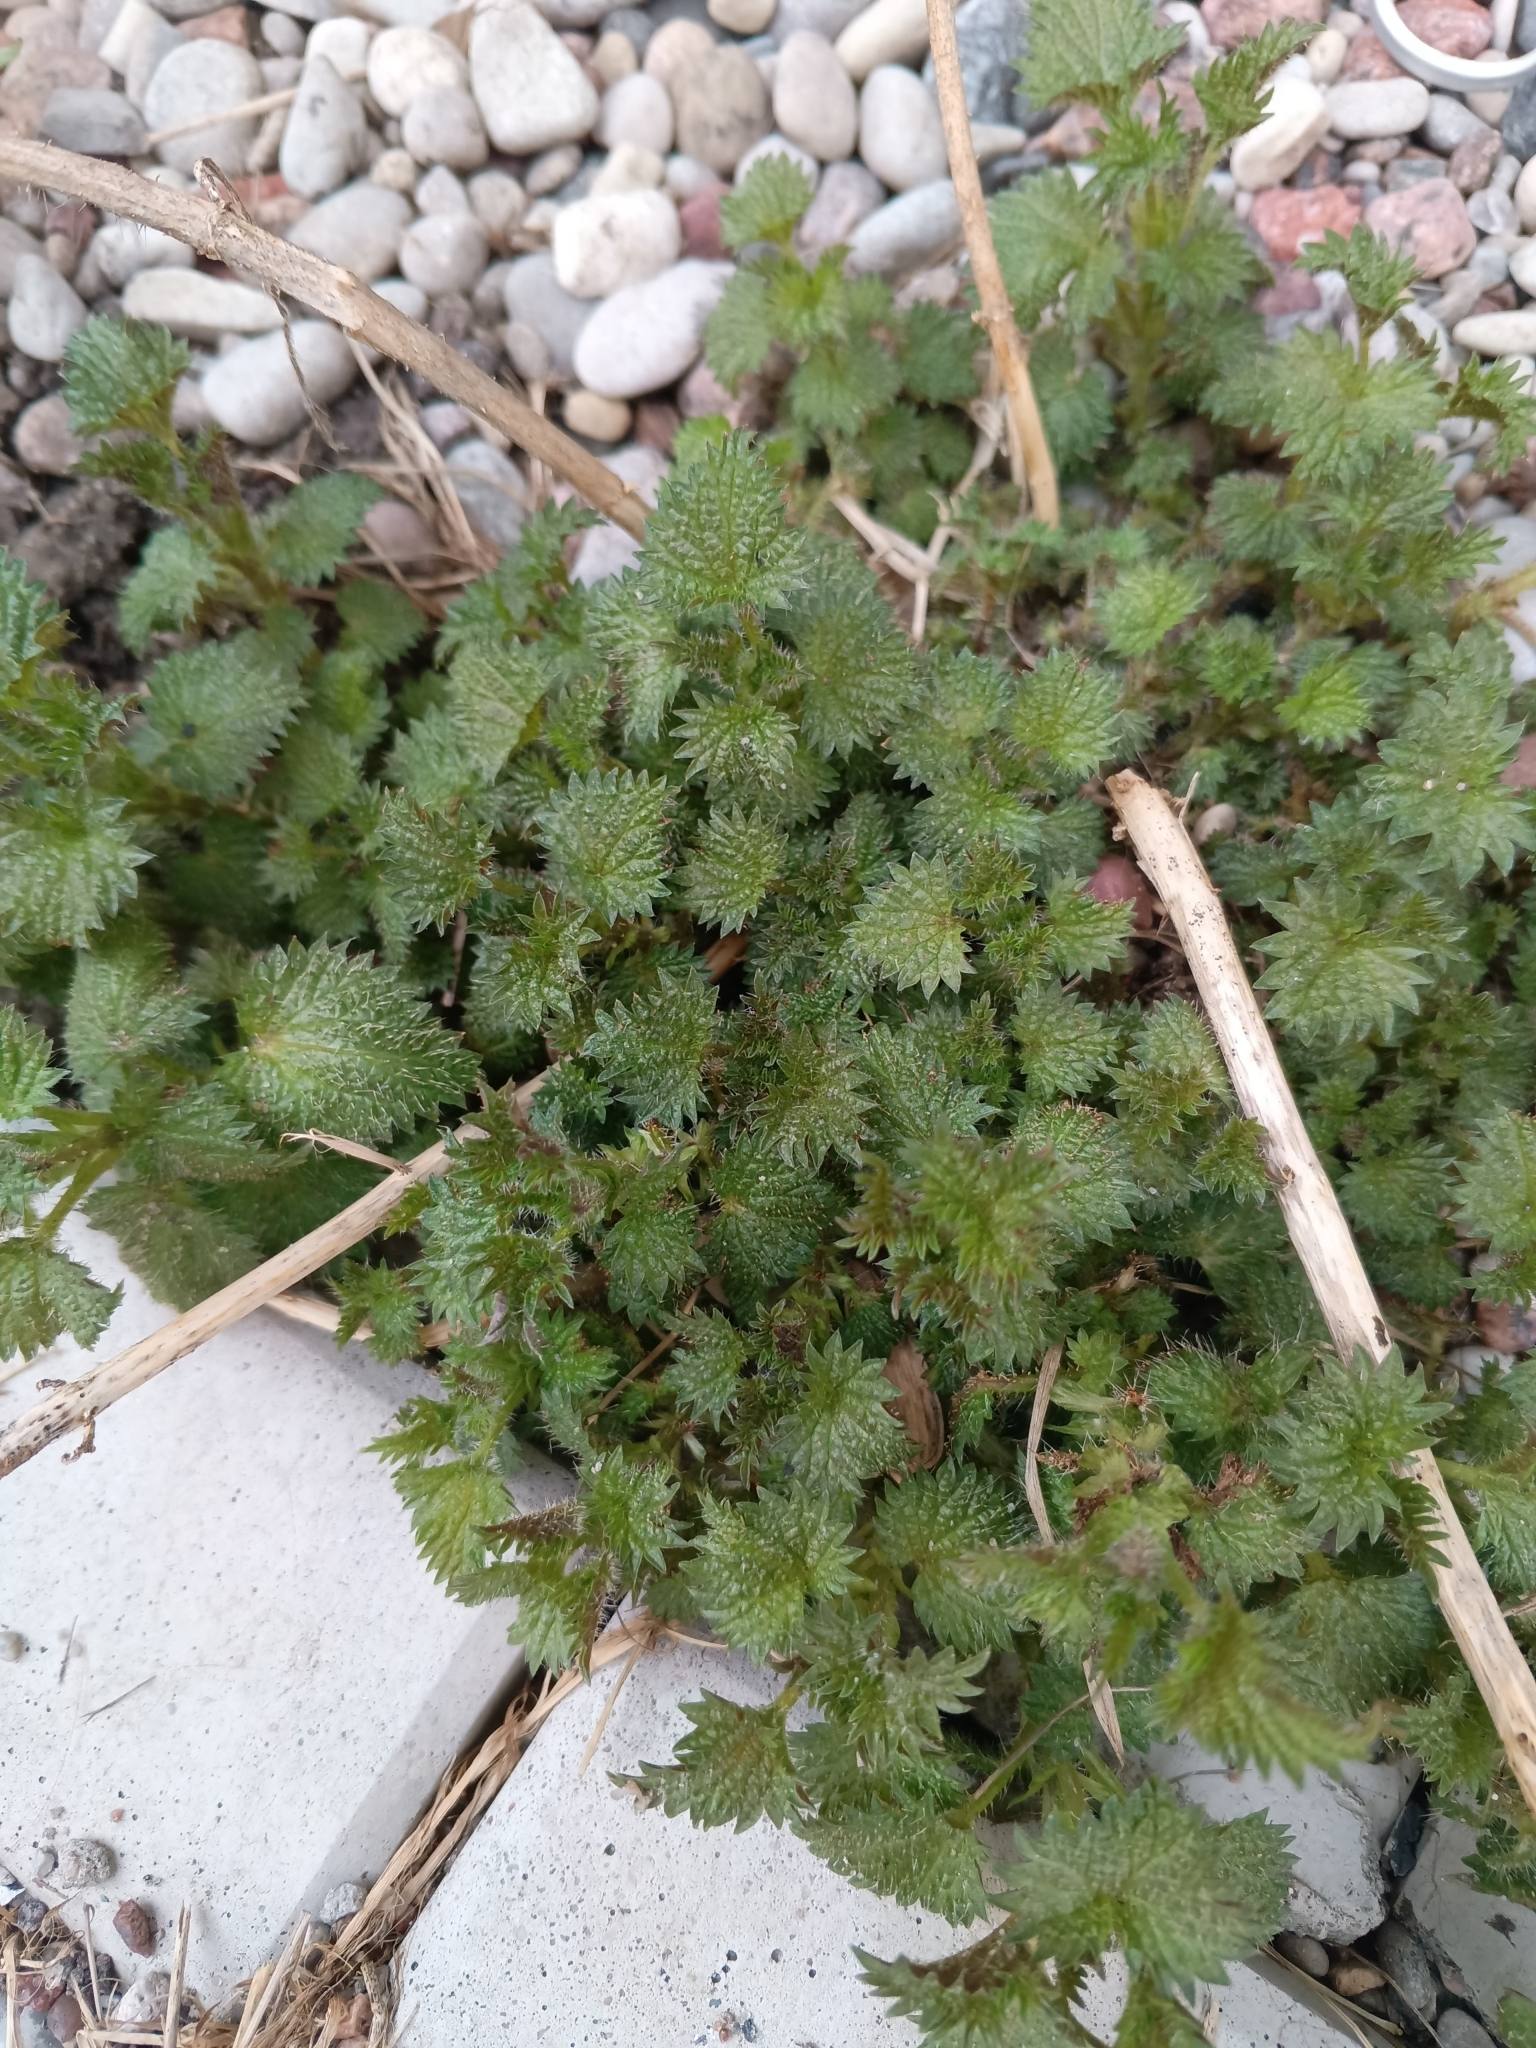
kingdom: Plantae
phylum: Tracheophyta
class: Magnoliopsida
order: Rosales
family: Urticaceae
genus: Urtica
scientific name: Urtica dioica
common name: Common nettle
